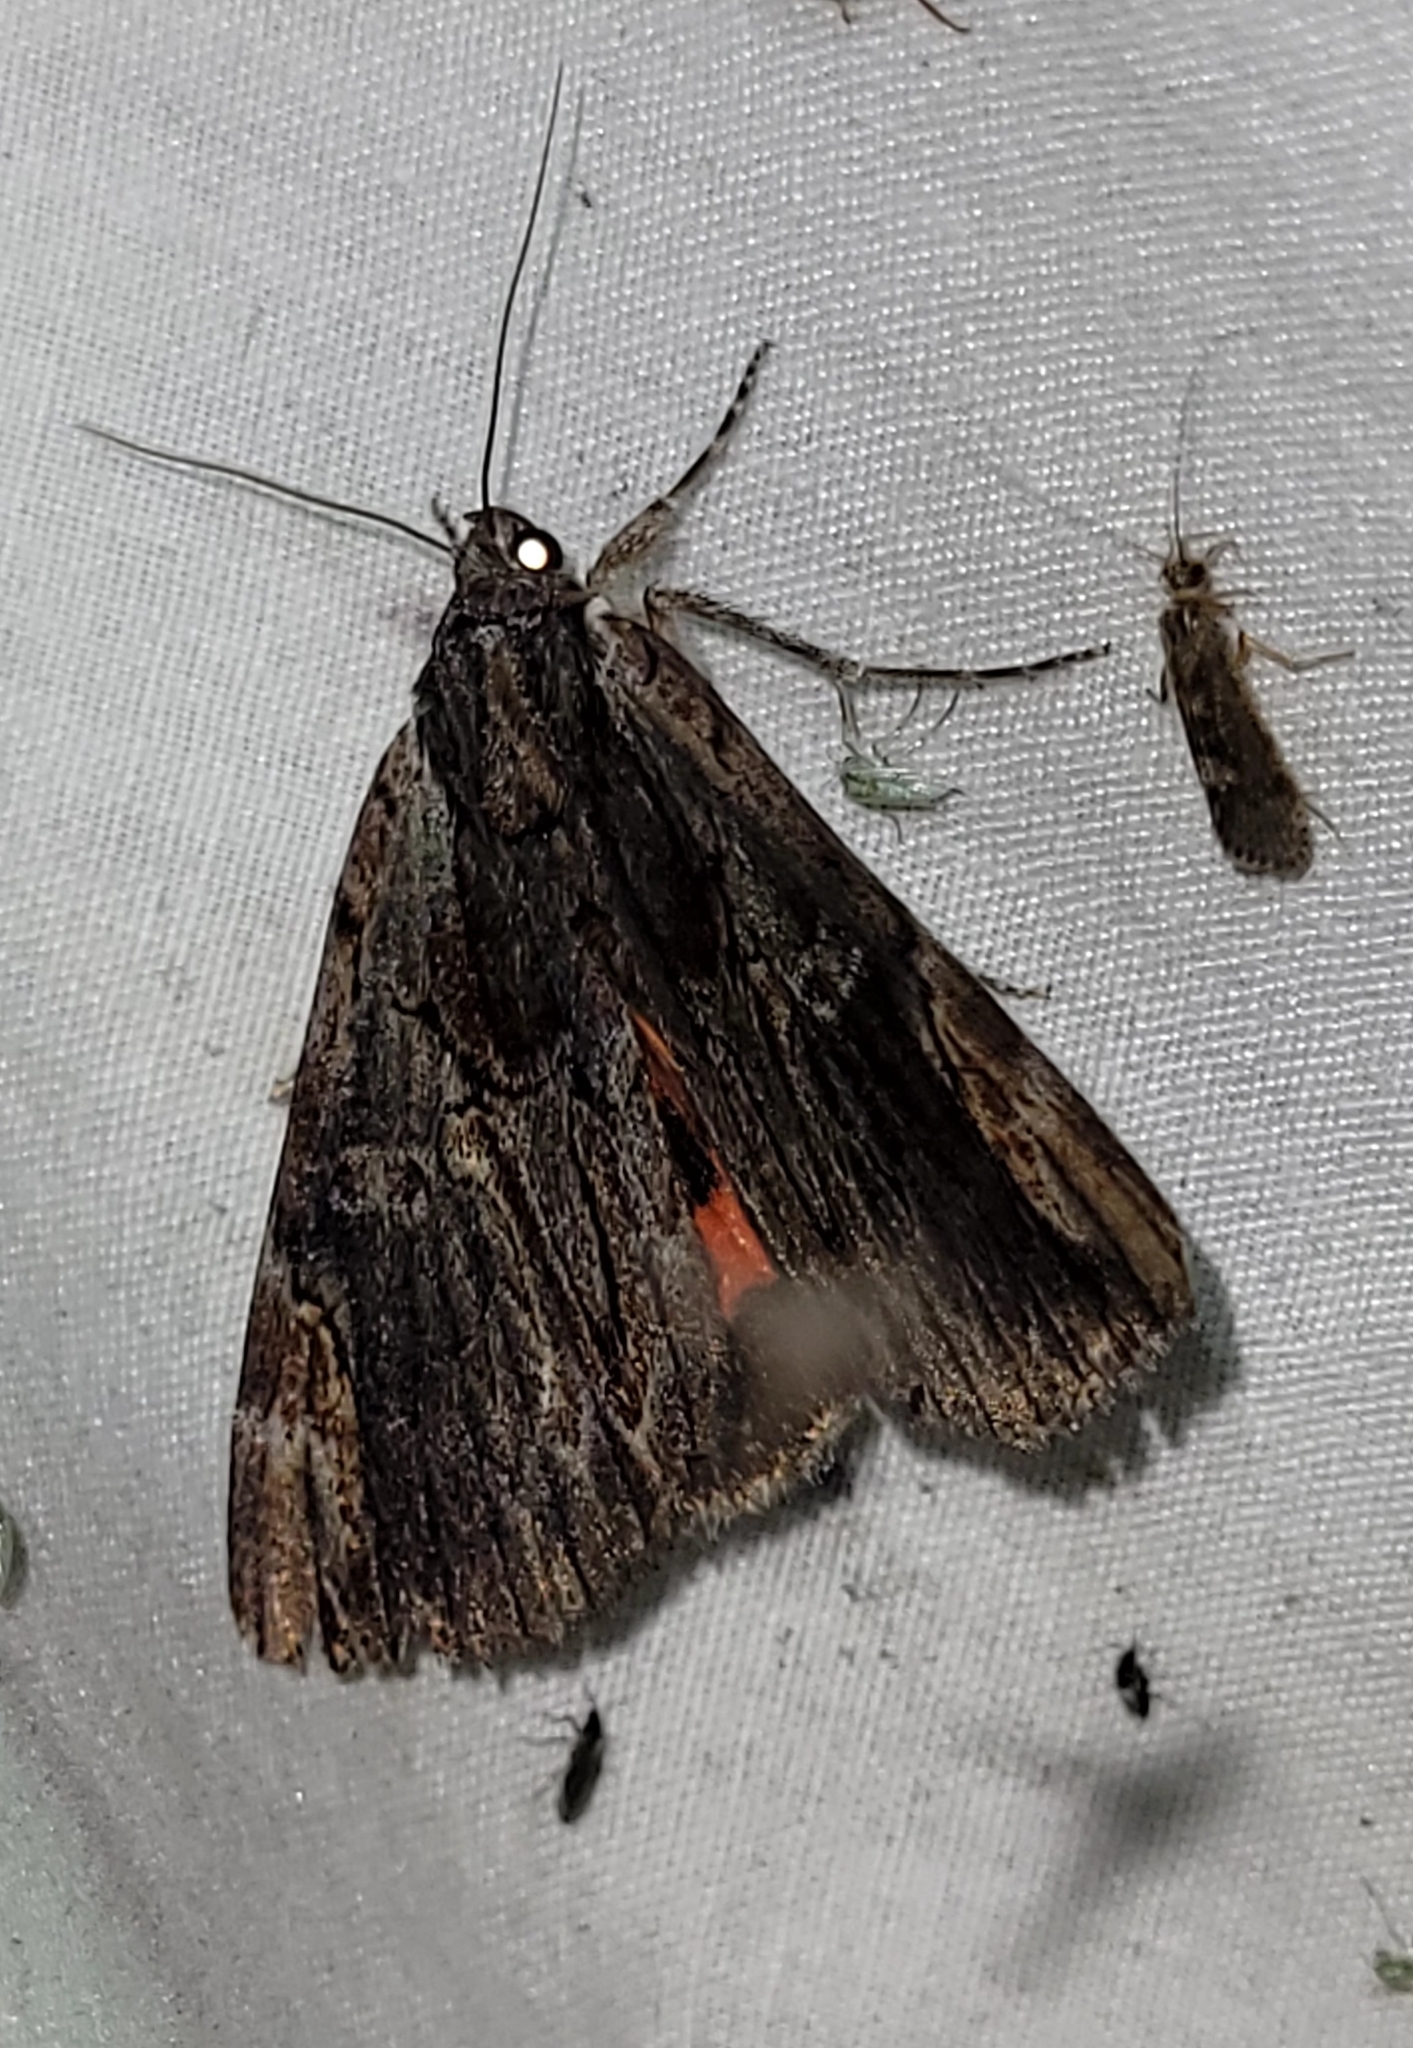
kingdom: Animalia
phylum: Arthropoda
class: Insecta
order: Lepidoptera
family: Erebidae
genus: Catocala
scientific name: Catocala ultronia
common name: Ultronia underwing
